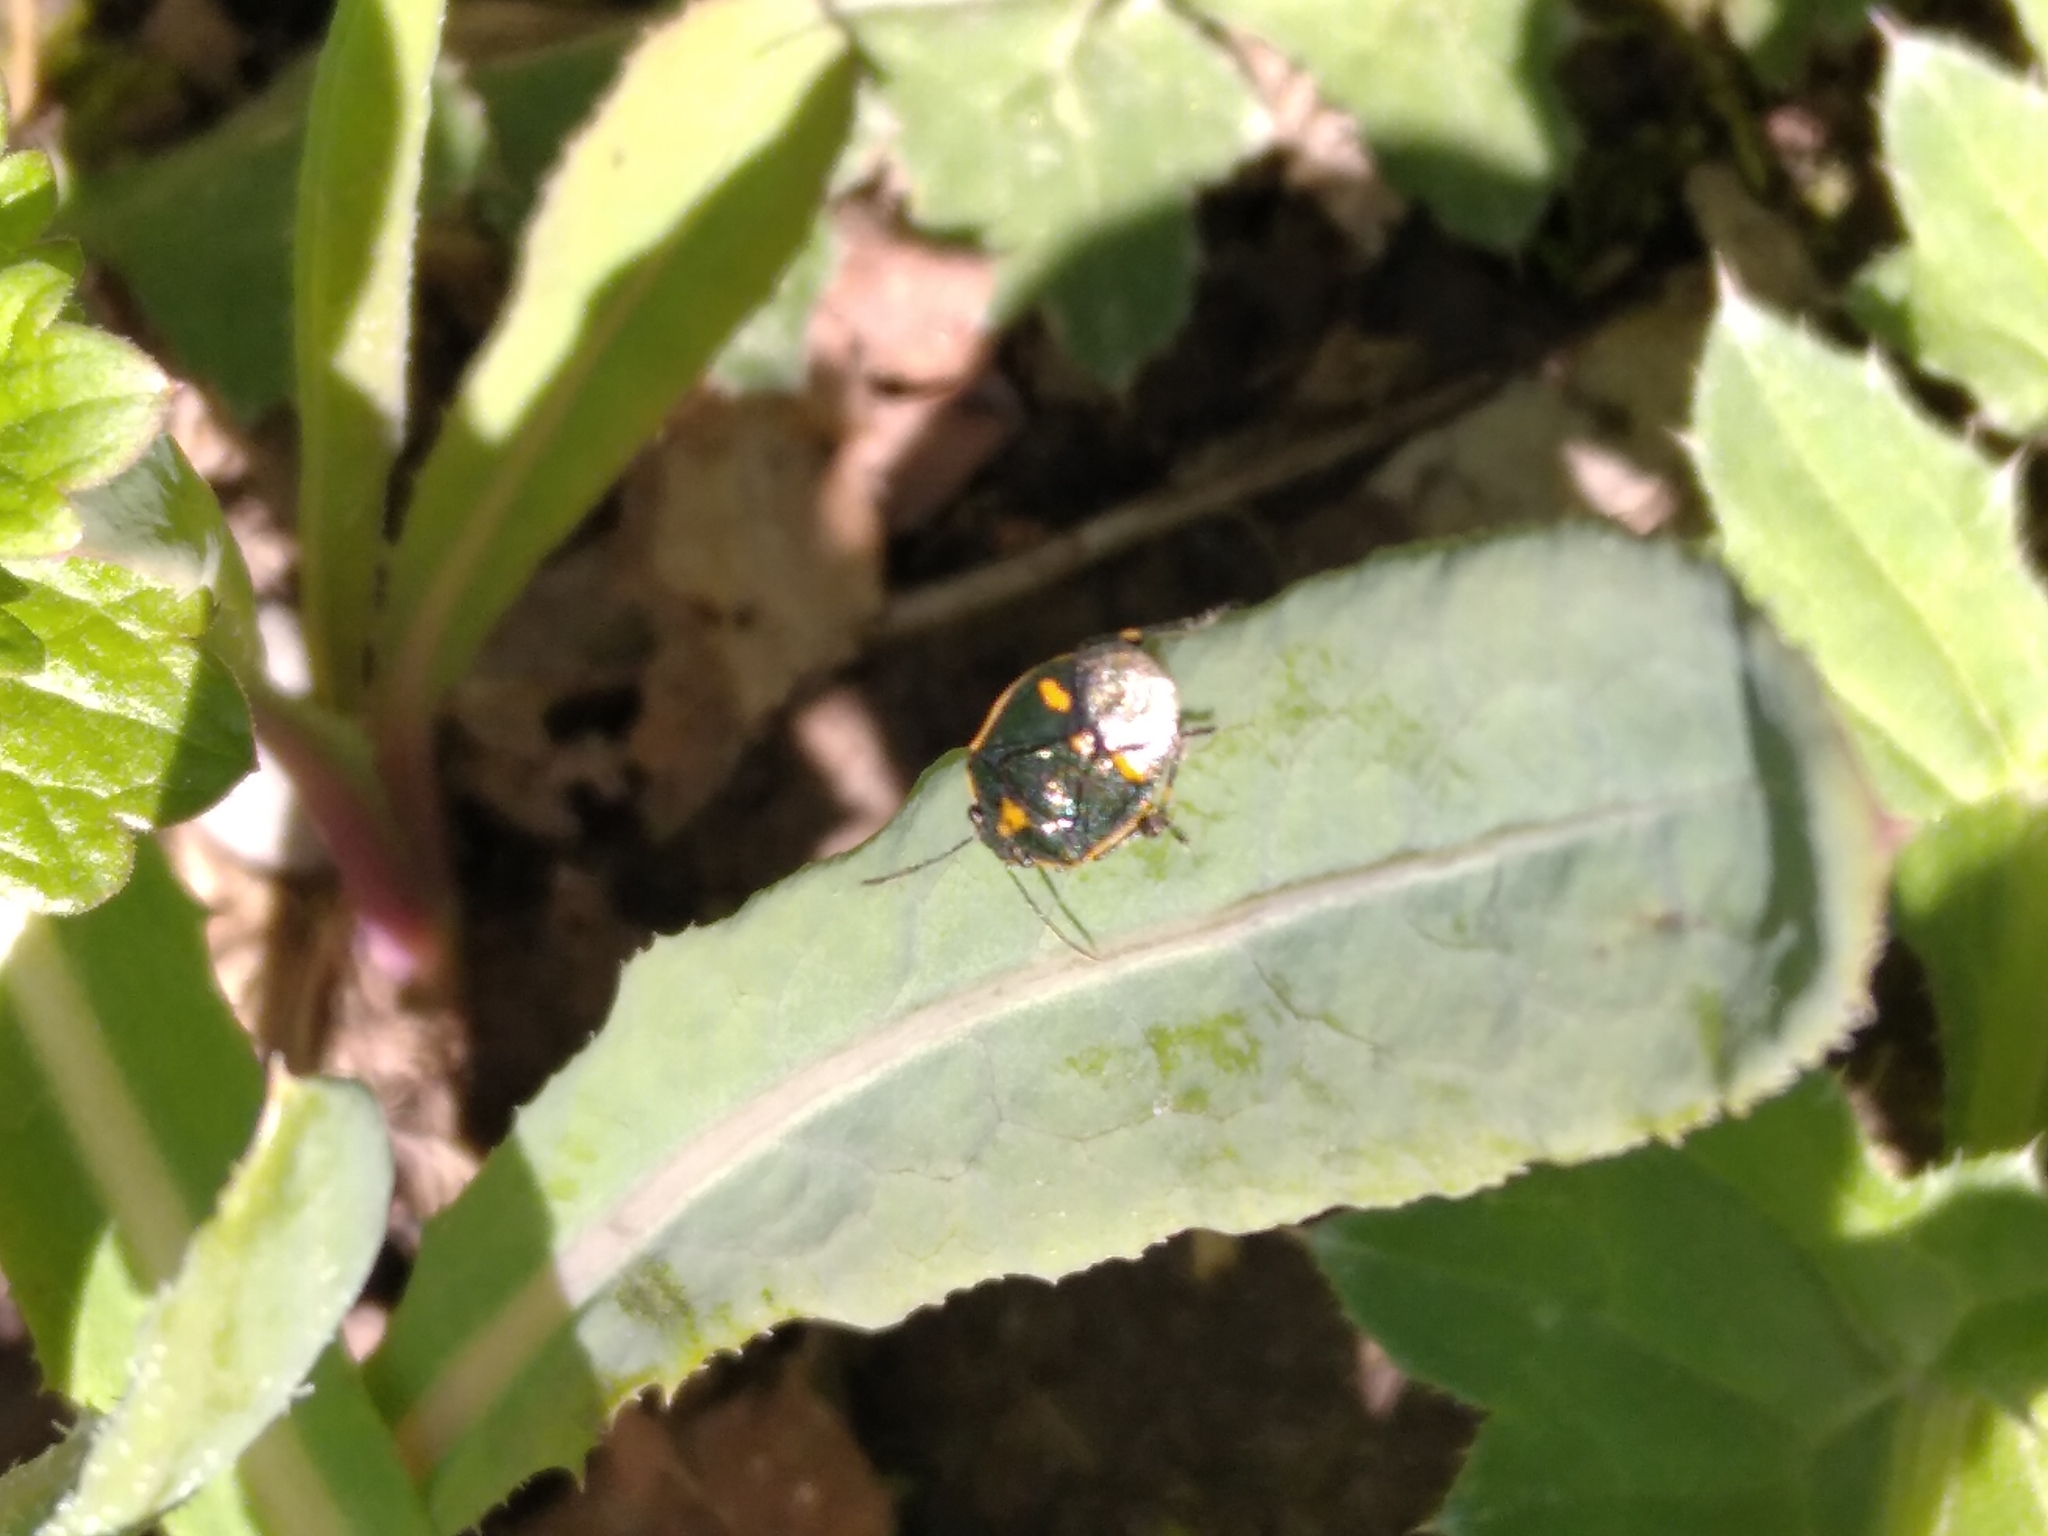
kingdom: Animalia
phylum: Arthropoda
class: Insecta
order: Hemiptera
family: Pentatomidae
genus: Eurydema
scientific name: Eurydema oleracea
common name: Cabbage bug
